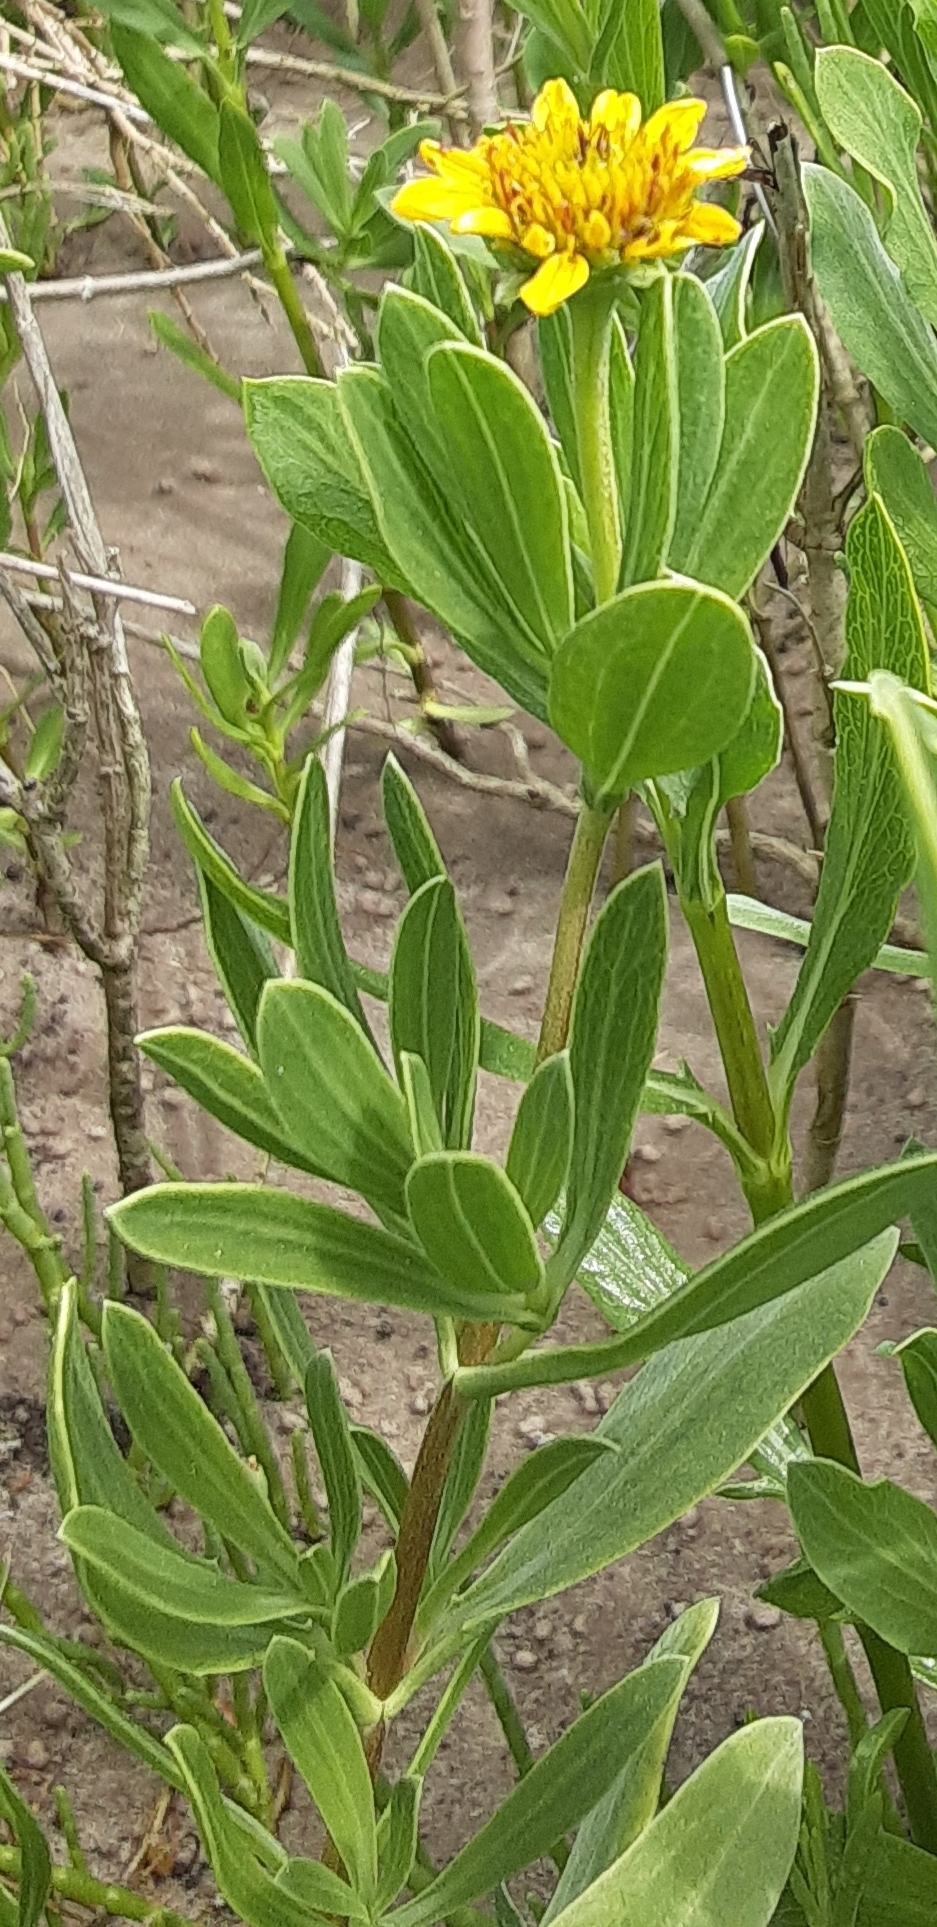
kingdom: Plantae
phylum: Tracheophyta
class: Magnoliopsida
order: Asterales
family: Asteraceae
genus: Borrichia
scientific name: Borrichia frutescens
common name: Sea oxeye
